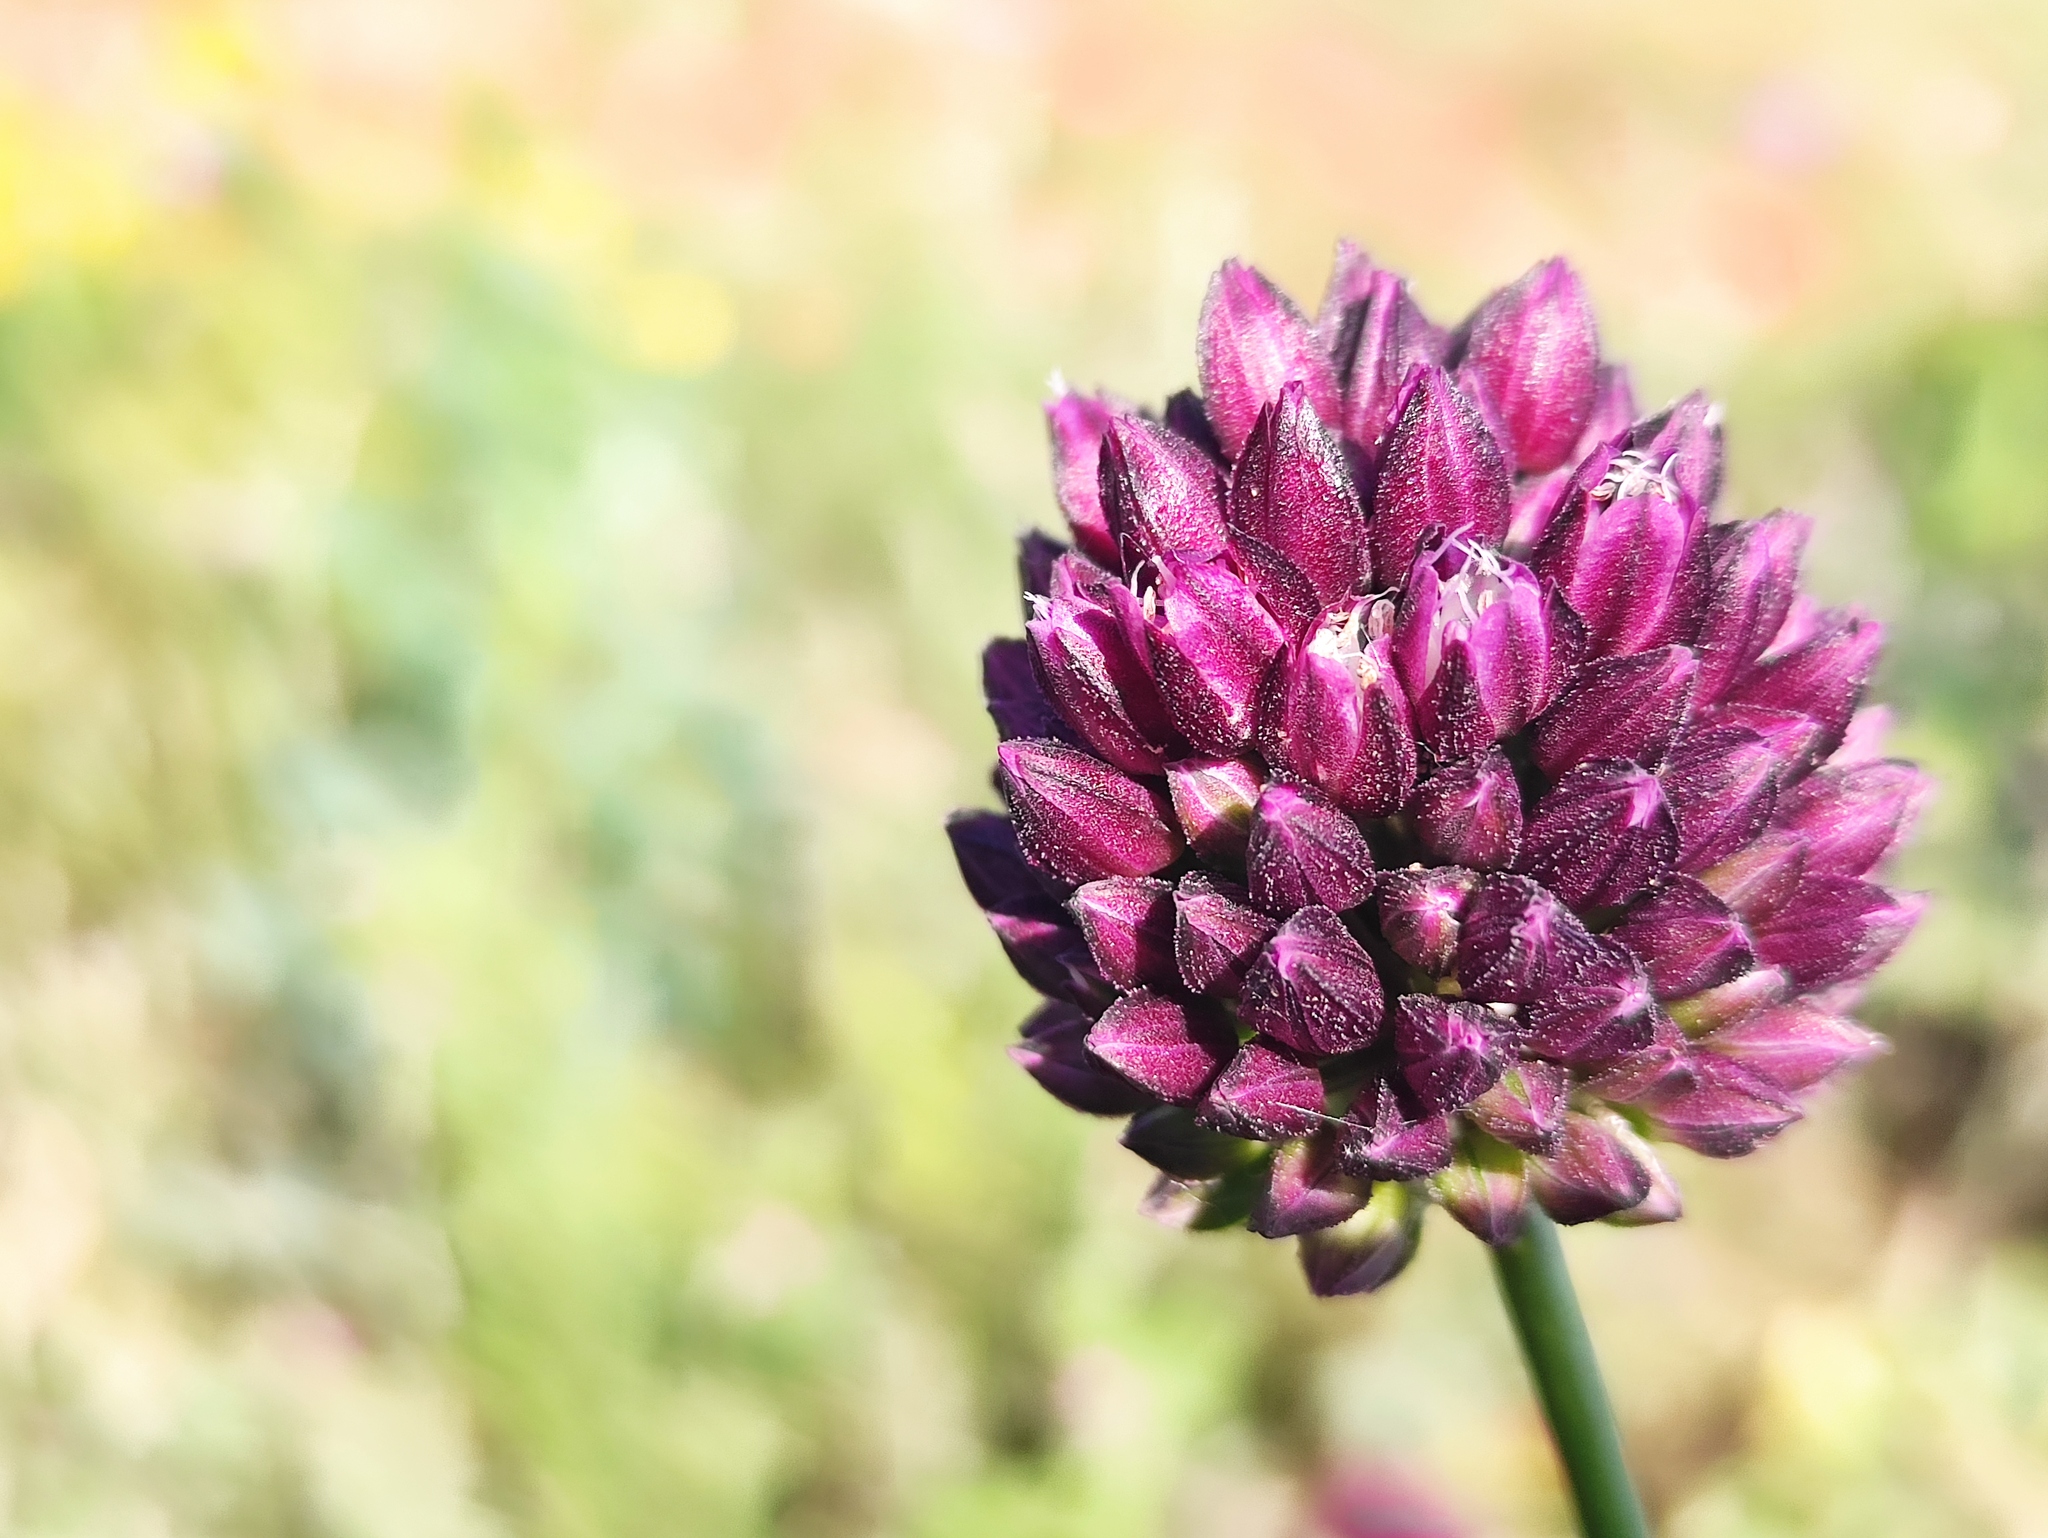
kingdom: Plantae
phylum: Tracheophyta
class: Liliopsida
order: Asparagales
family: Amaryllidaceae
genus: Allium
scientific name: Allium rotundum
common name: Sand leek
